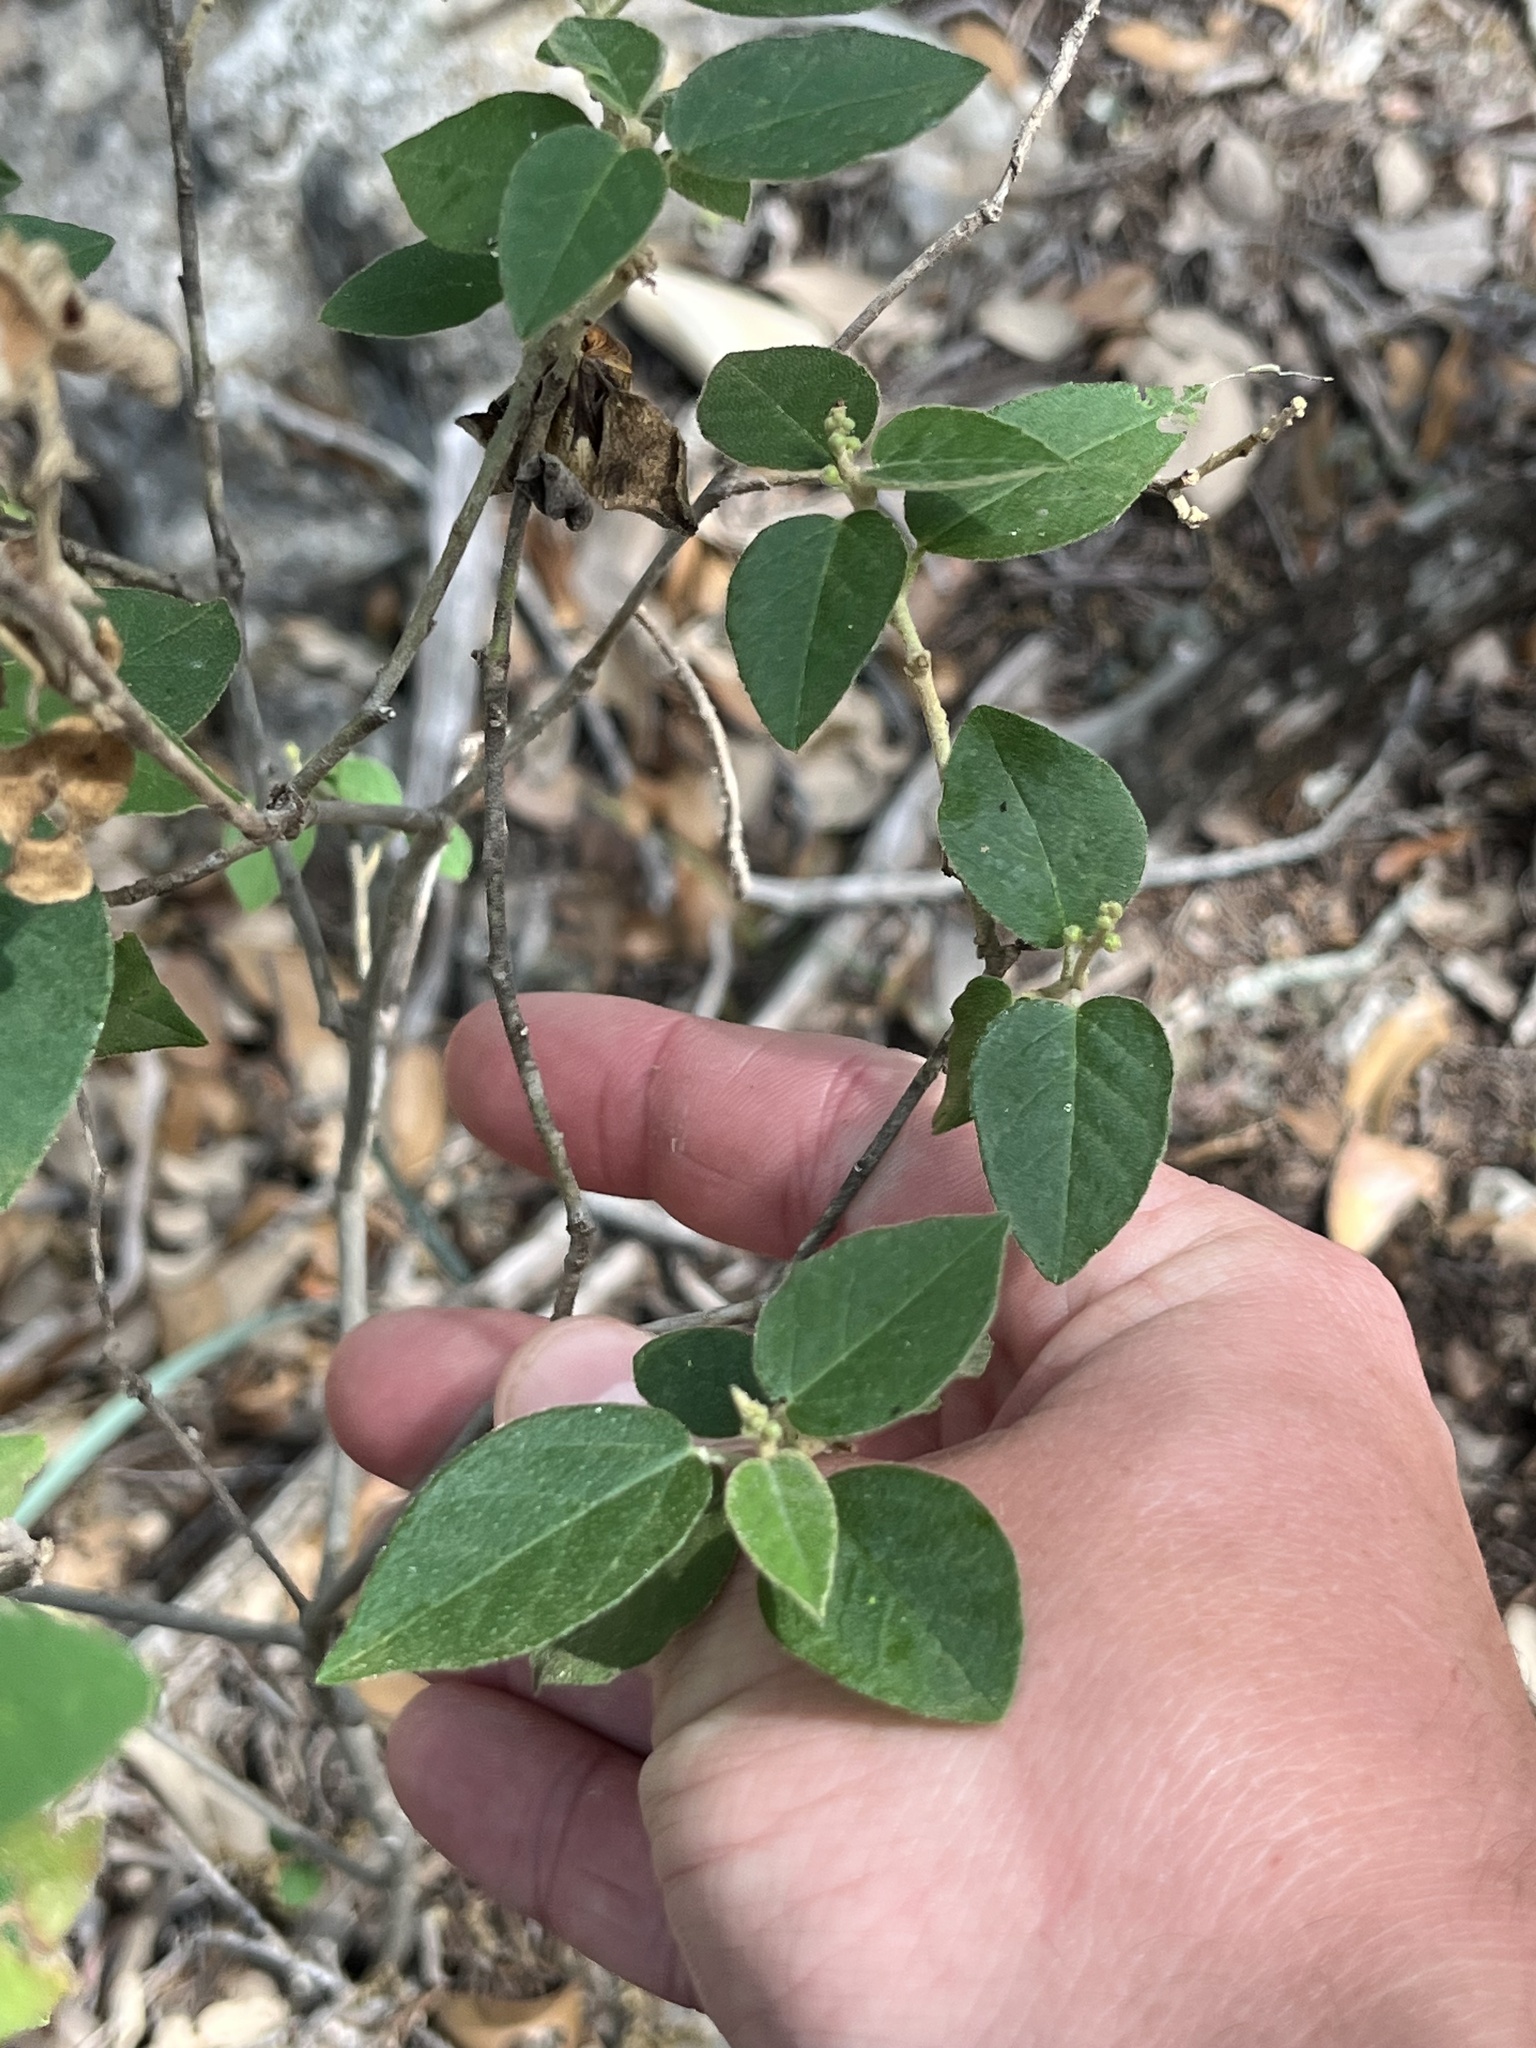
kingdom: Plantae
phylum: Tracheophyta
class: Magnoliopsida
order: Malpighiales
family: Euphorbiaceae
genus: Croton
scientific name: Croton fruticulosus
